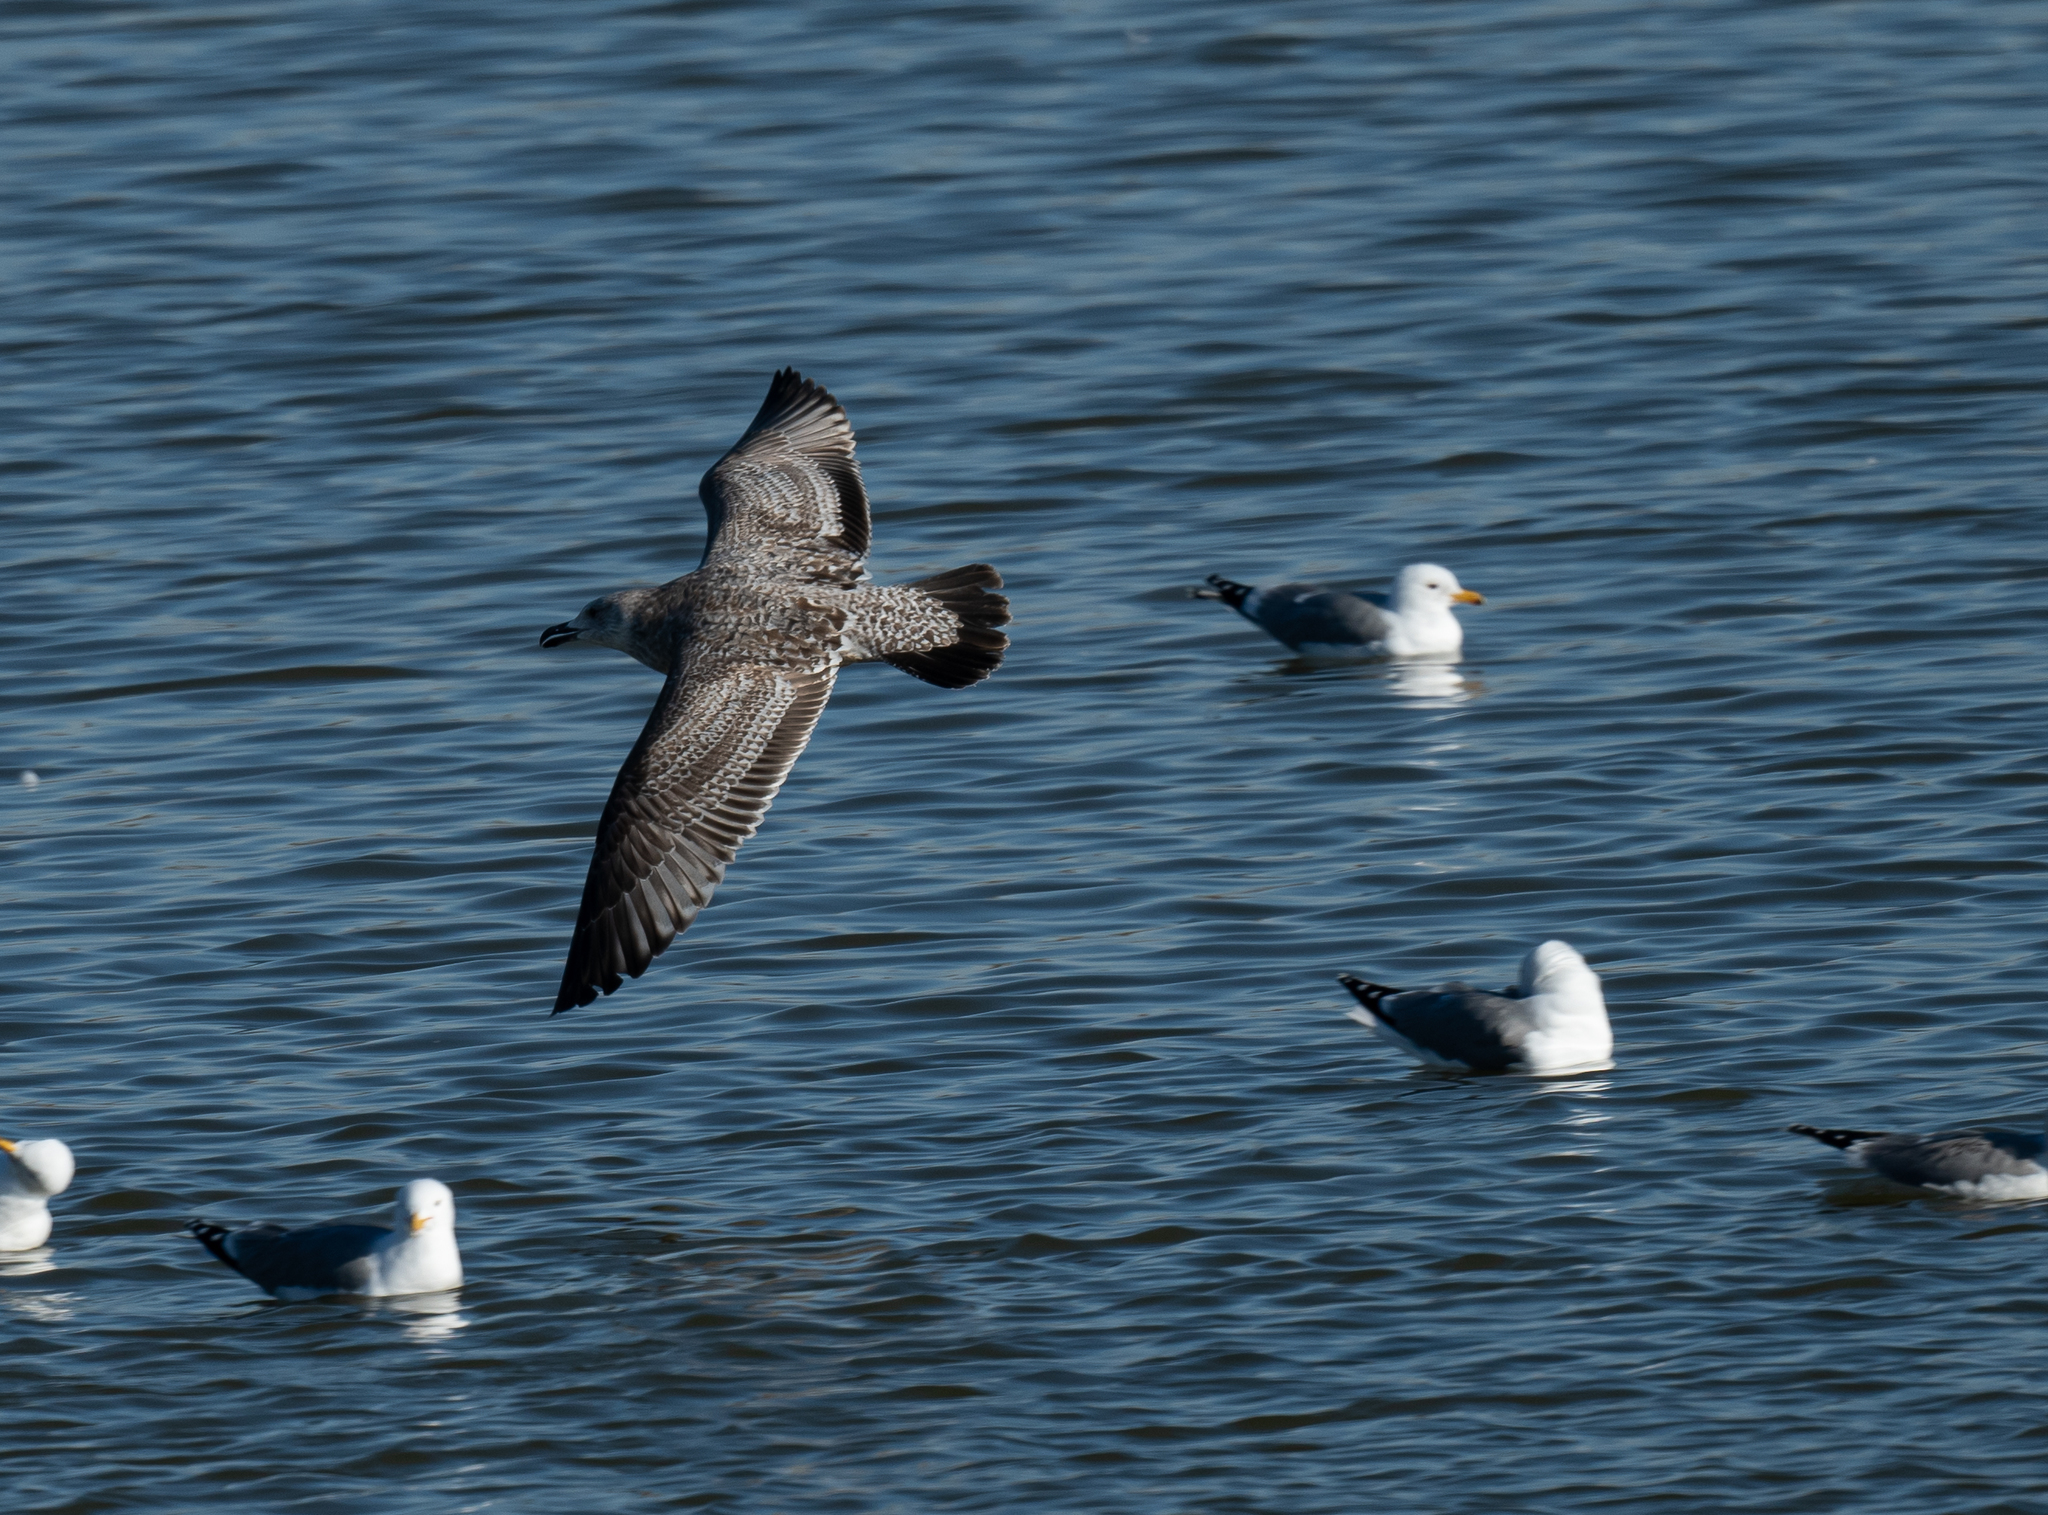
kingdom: Animalia
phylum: Chordata
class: Aves
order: Charadriiformes
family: Laridae
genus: Larus
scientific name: Larus argentatus
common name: Herring gull
